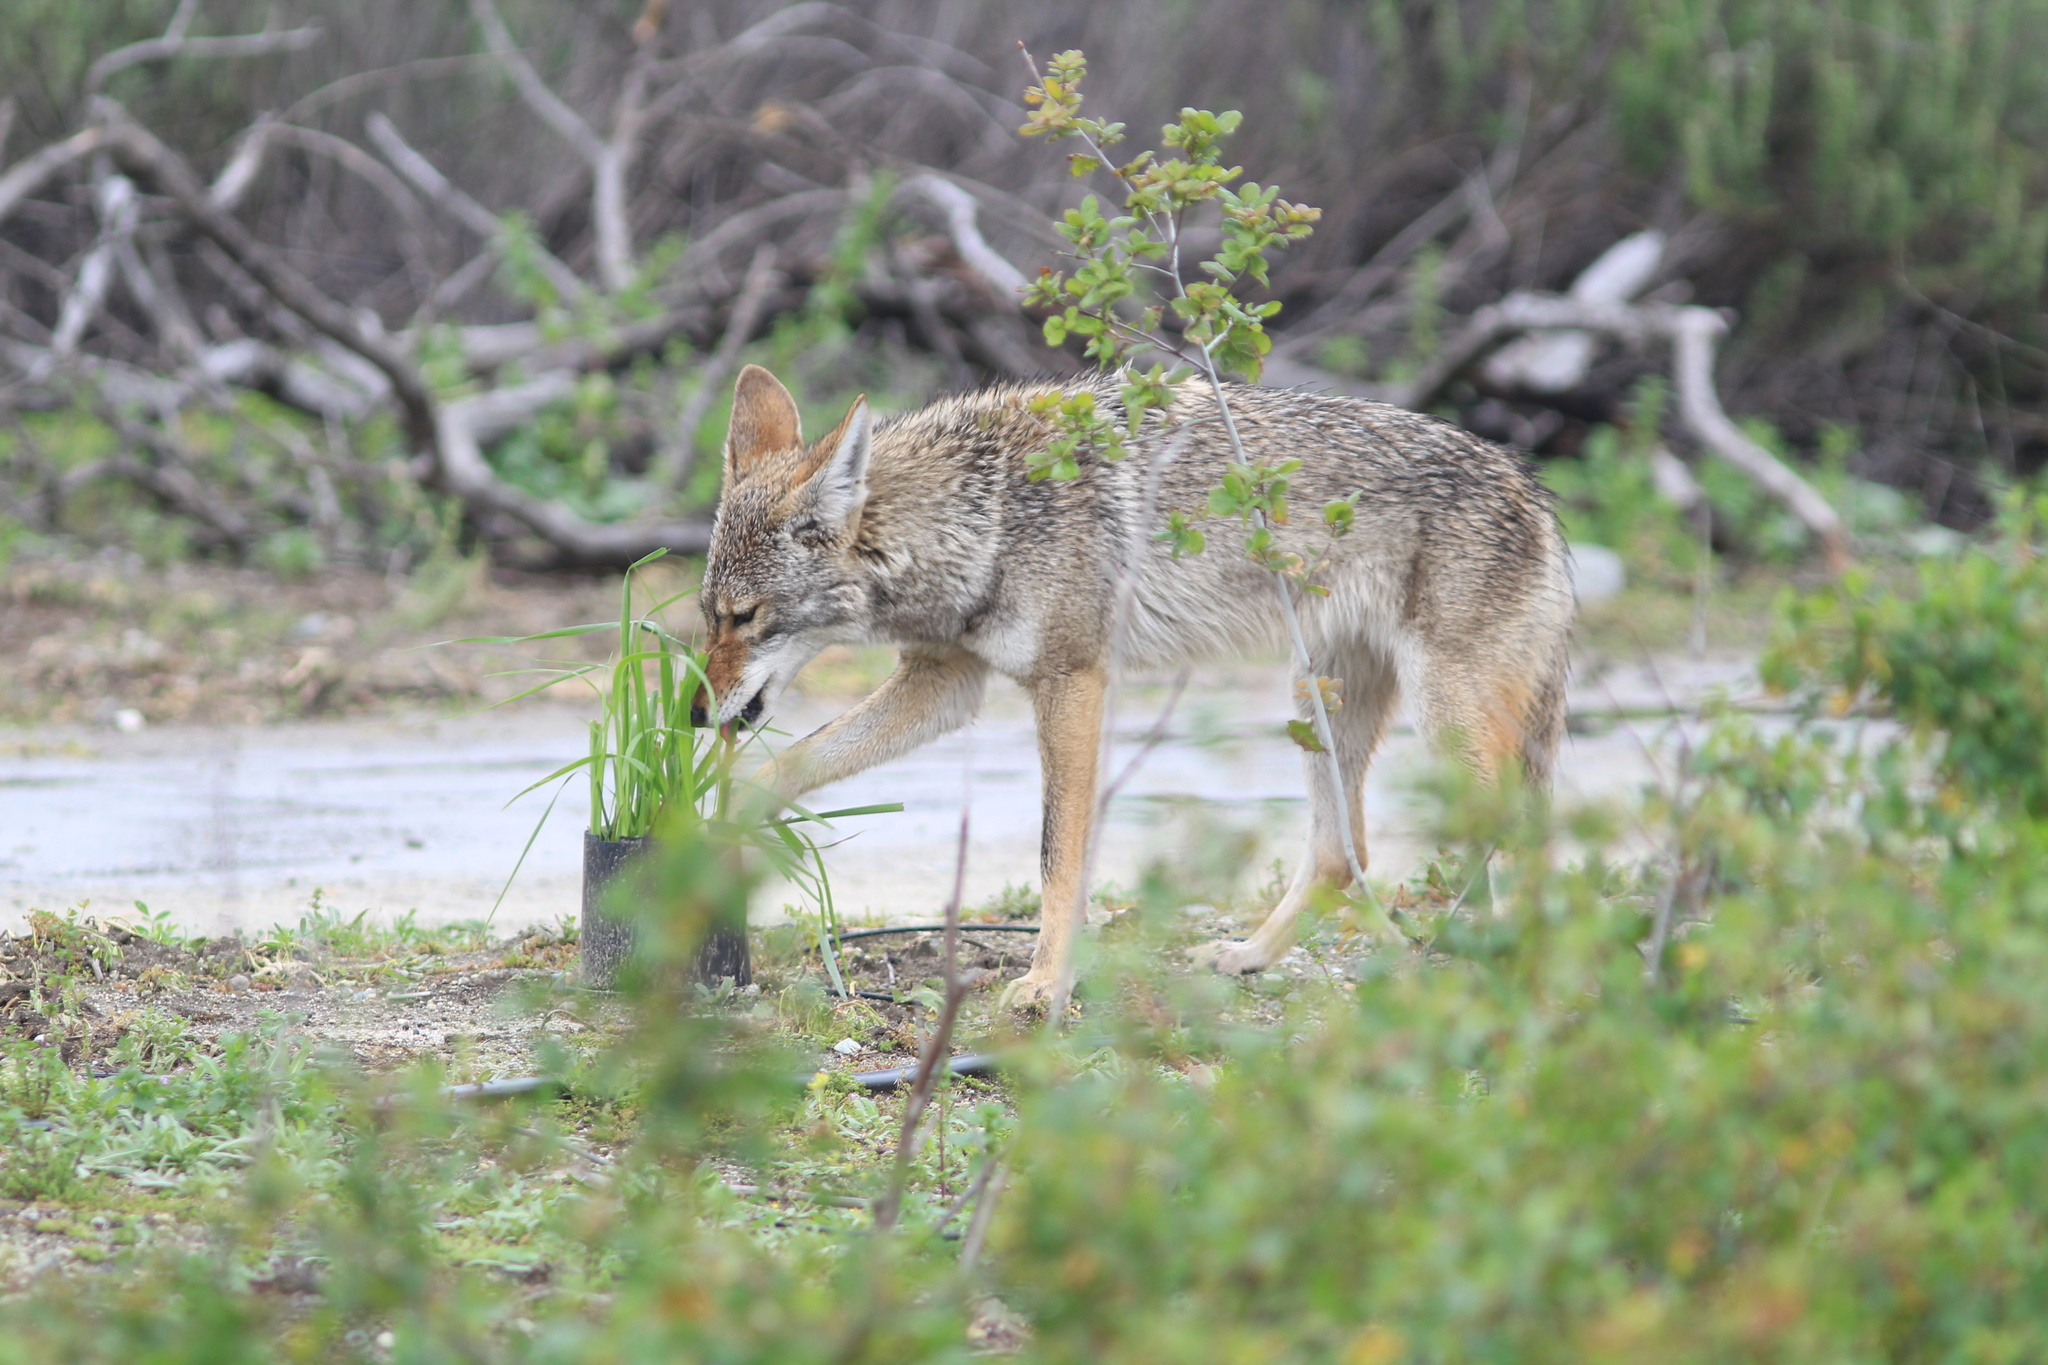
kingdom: Animalia
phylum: Chordata
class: Mammalia
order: Carnivora
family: Canidae
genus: Canis
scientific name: Canis latrans
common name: Coyote
